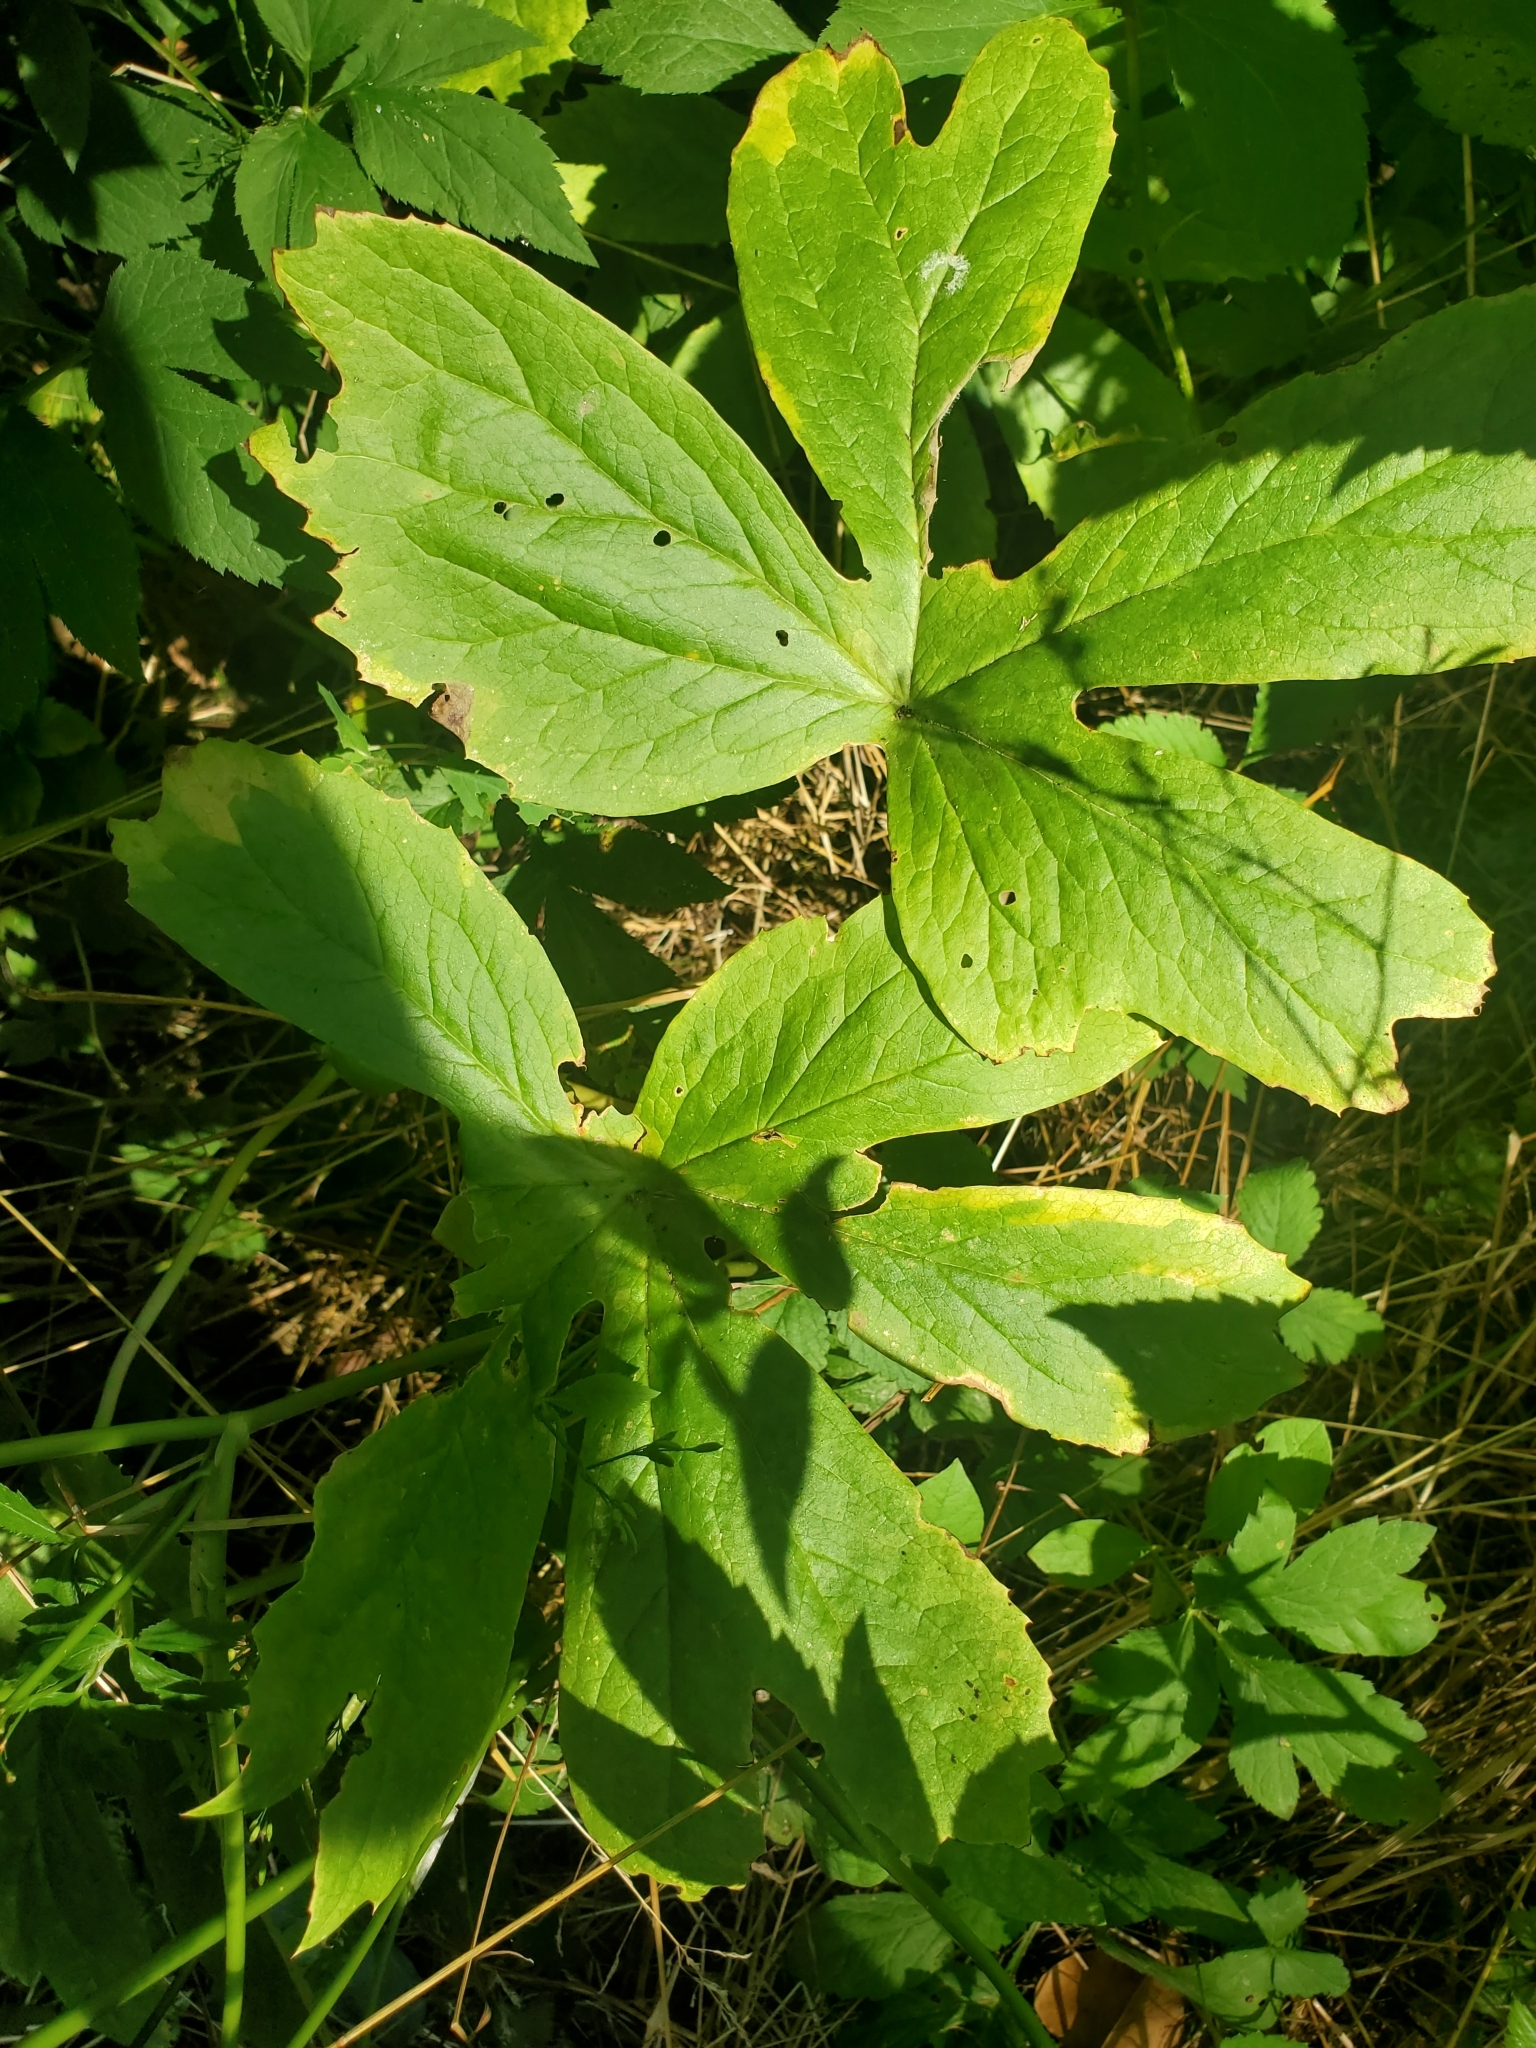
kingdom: Plantae
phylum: Tracheophyta
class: Magnoliopsida
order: Ranunculales
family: Berberidaceae
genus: Podophyllum
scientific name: Podophyllum peltatum
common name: Wild mandrake
